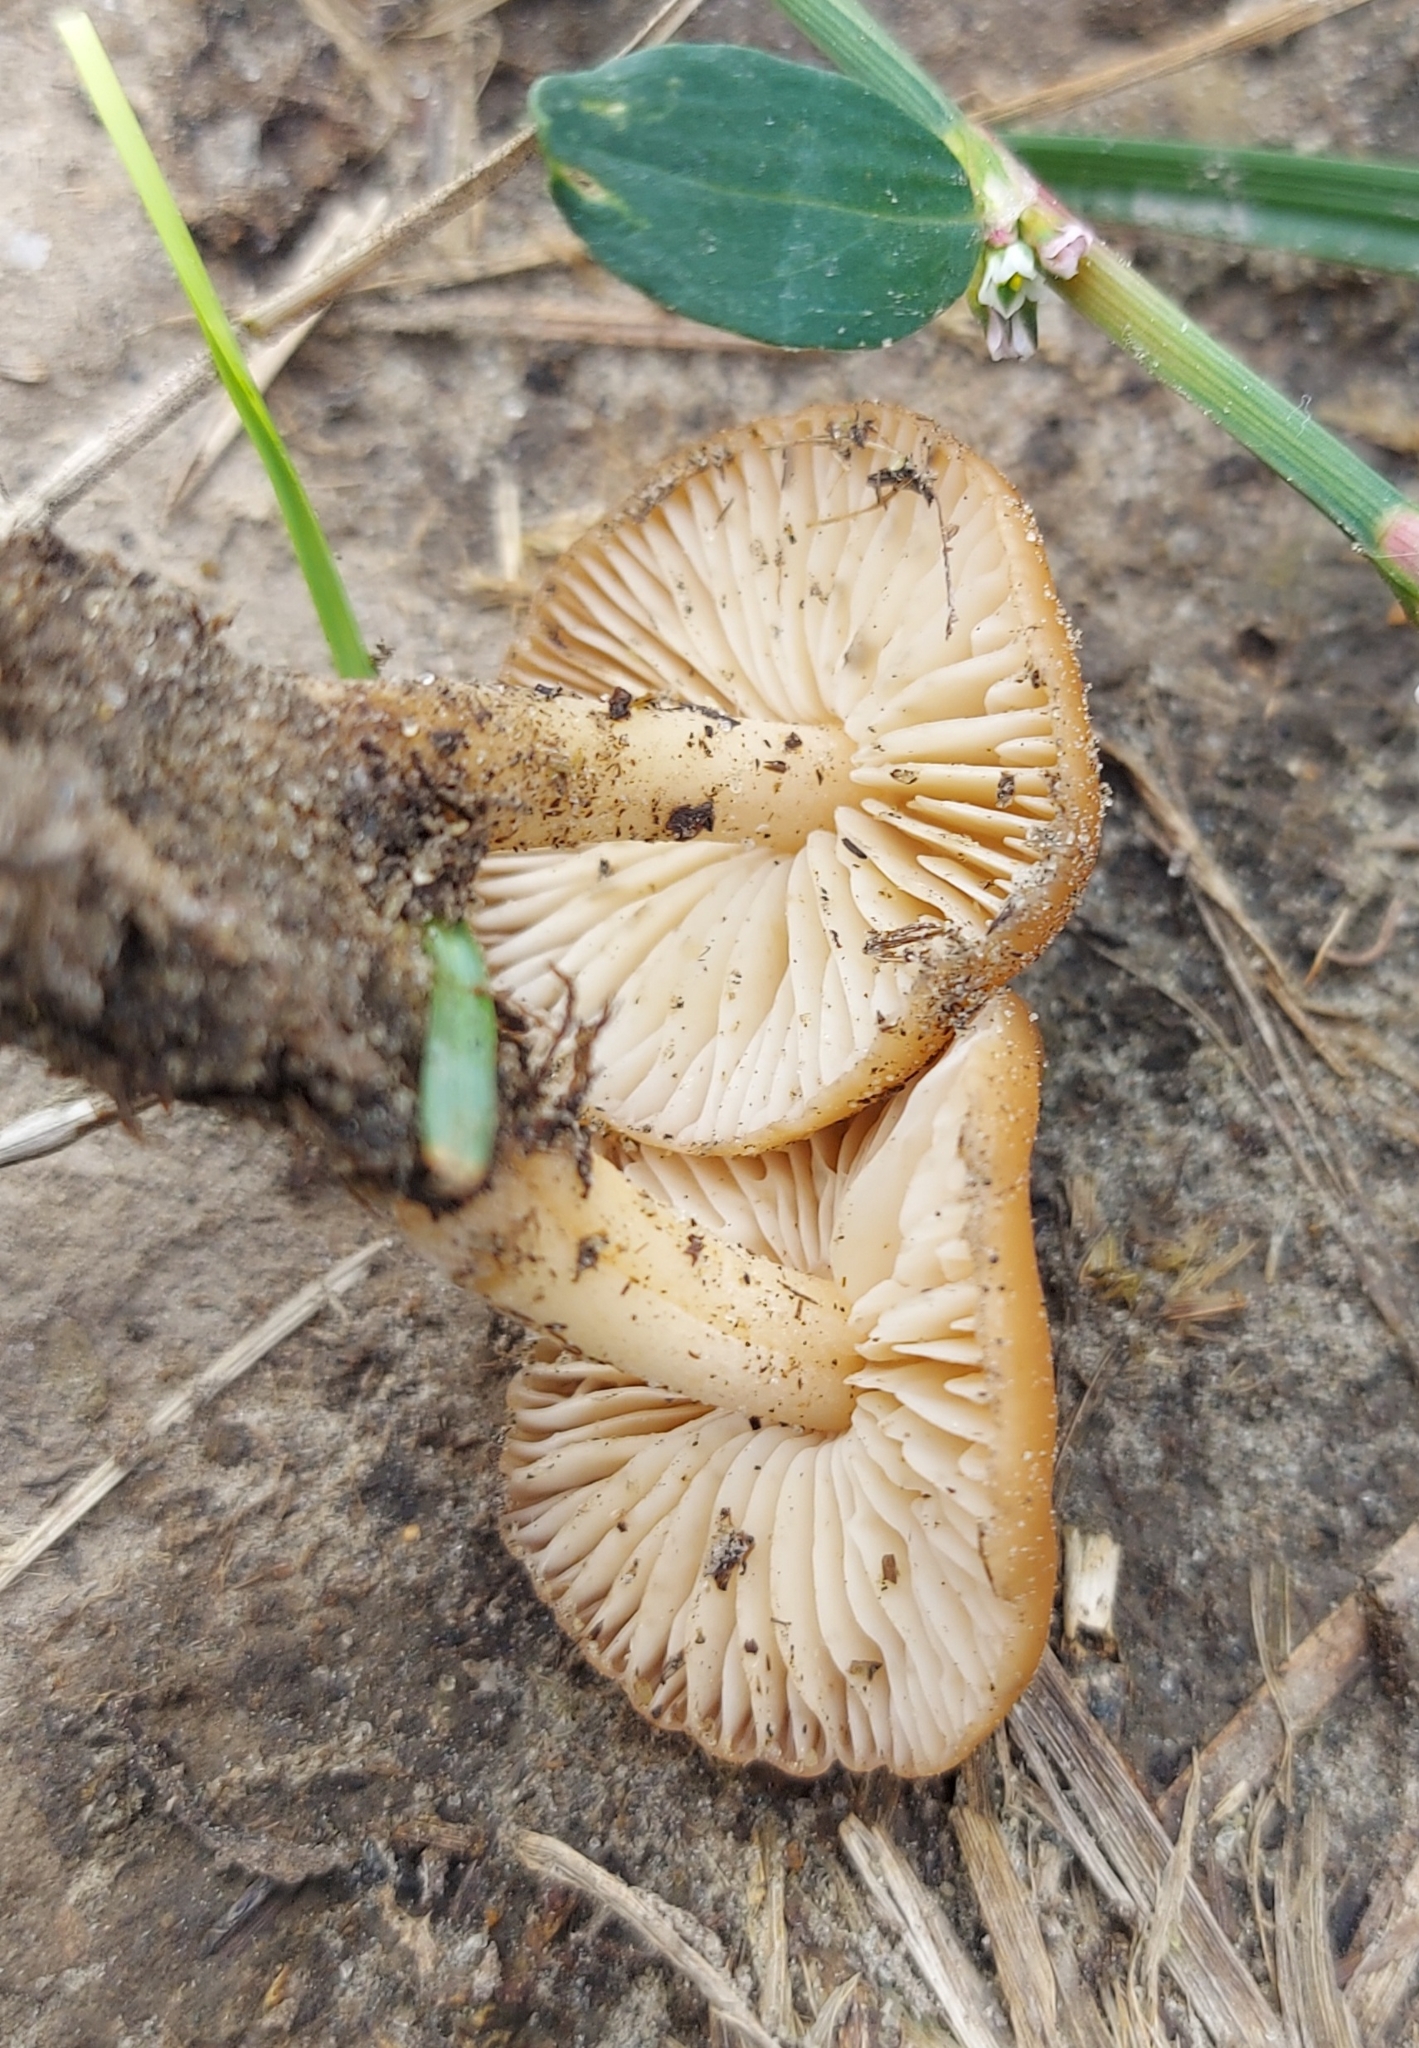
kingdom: Fungi
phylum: Basidiomycota
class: Agaricomycetes
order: Agaricales
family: Marasmiaceae
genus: Marasmius
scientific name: Marasmius oreades
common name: Fairy ring champignon
